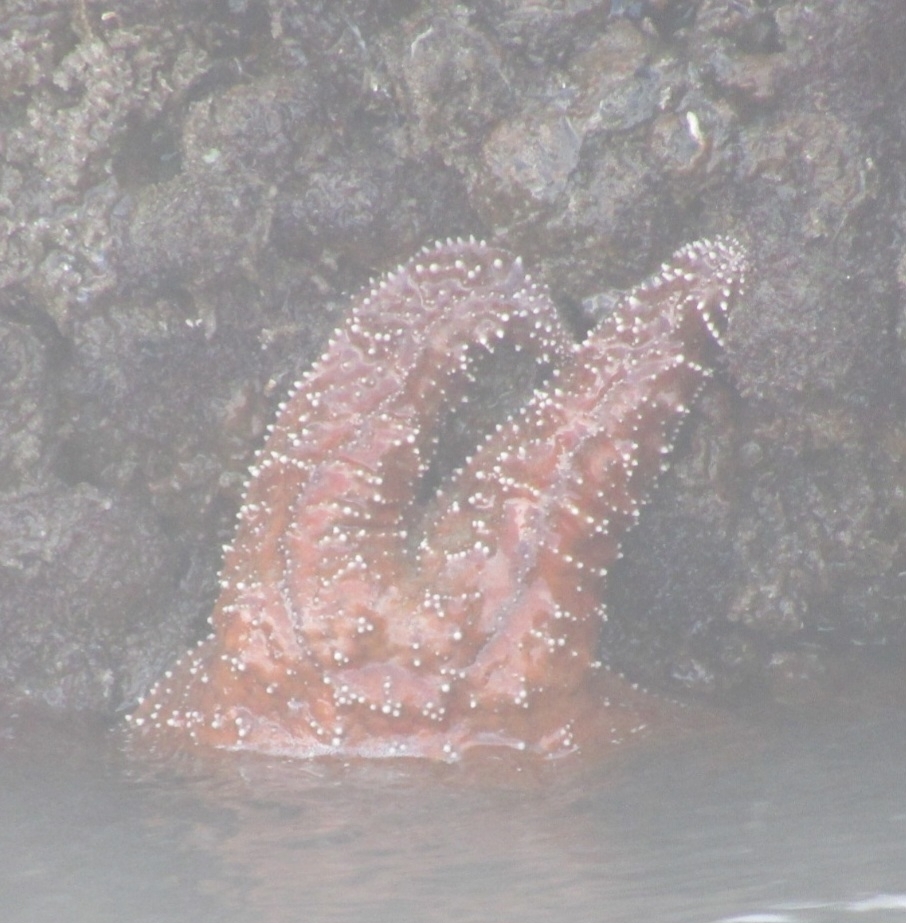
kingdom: Animalia
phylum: Echinodermata
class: Asteroidea
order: Forcipulatida
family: Asteriidae
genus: Pisaster
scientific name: Pisaster ochraceus
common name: Ochre stars
